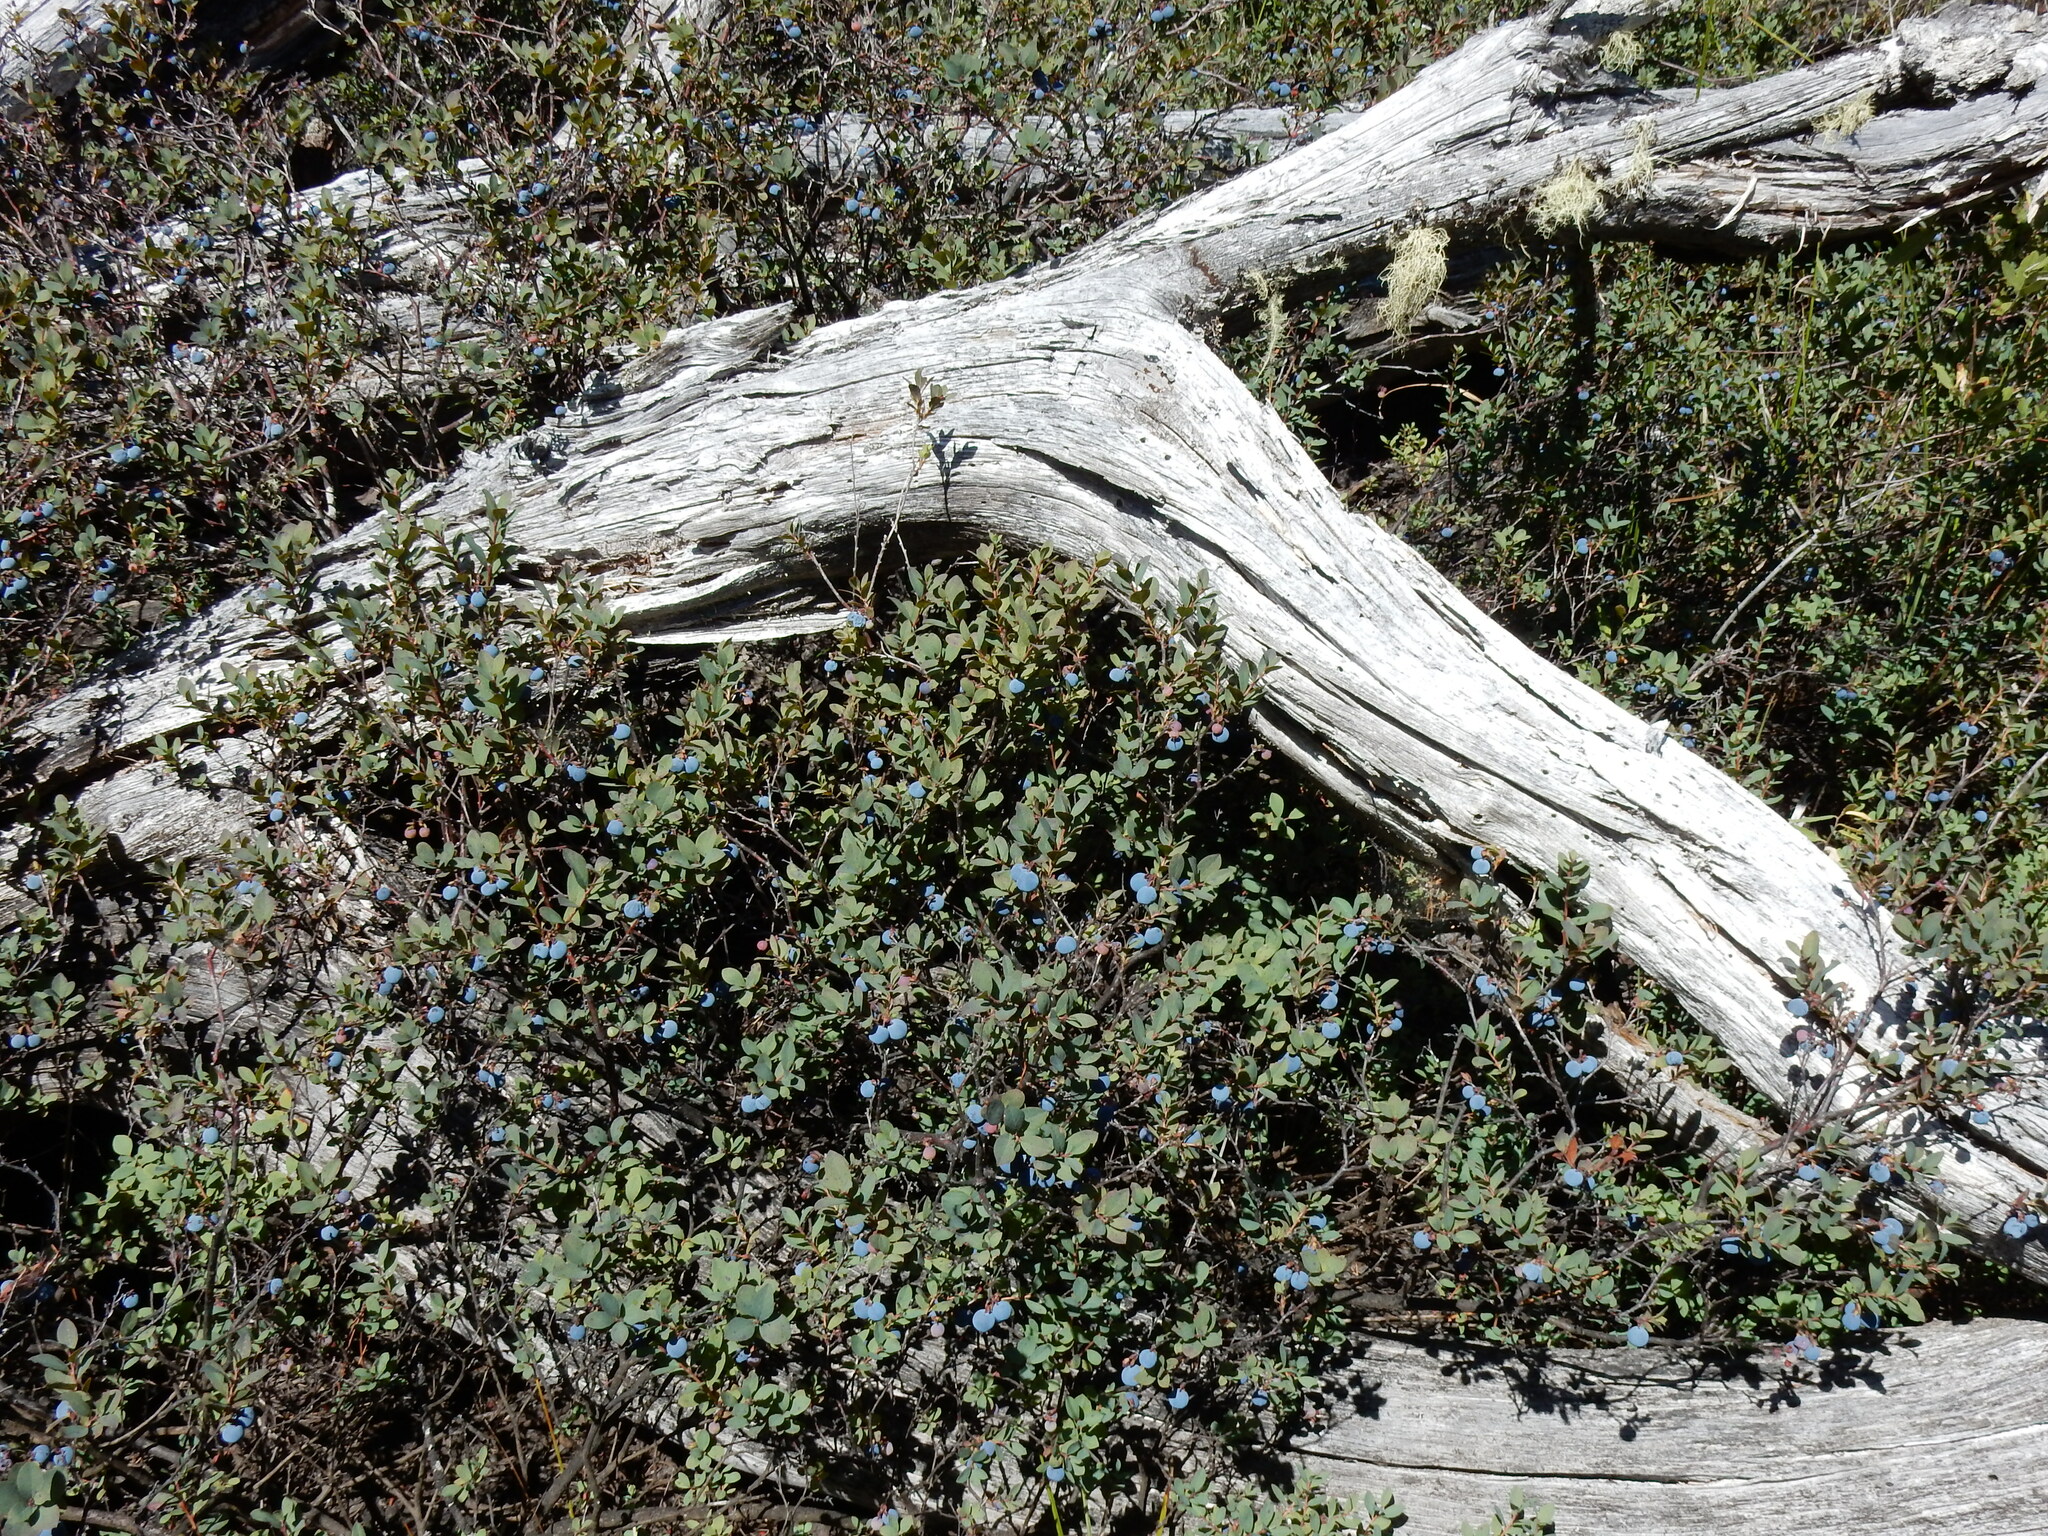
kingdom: Plantae
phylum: Tracheophyta
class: Magnoliopsida
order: Ericales
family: Ericaceae
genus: Vaccinium
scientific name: Vaccinium uliginosum
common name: Bog bilberry
